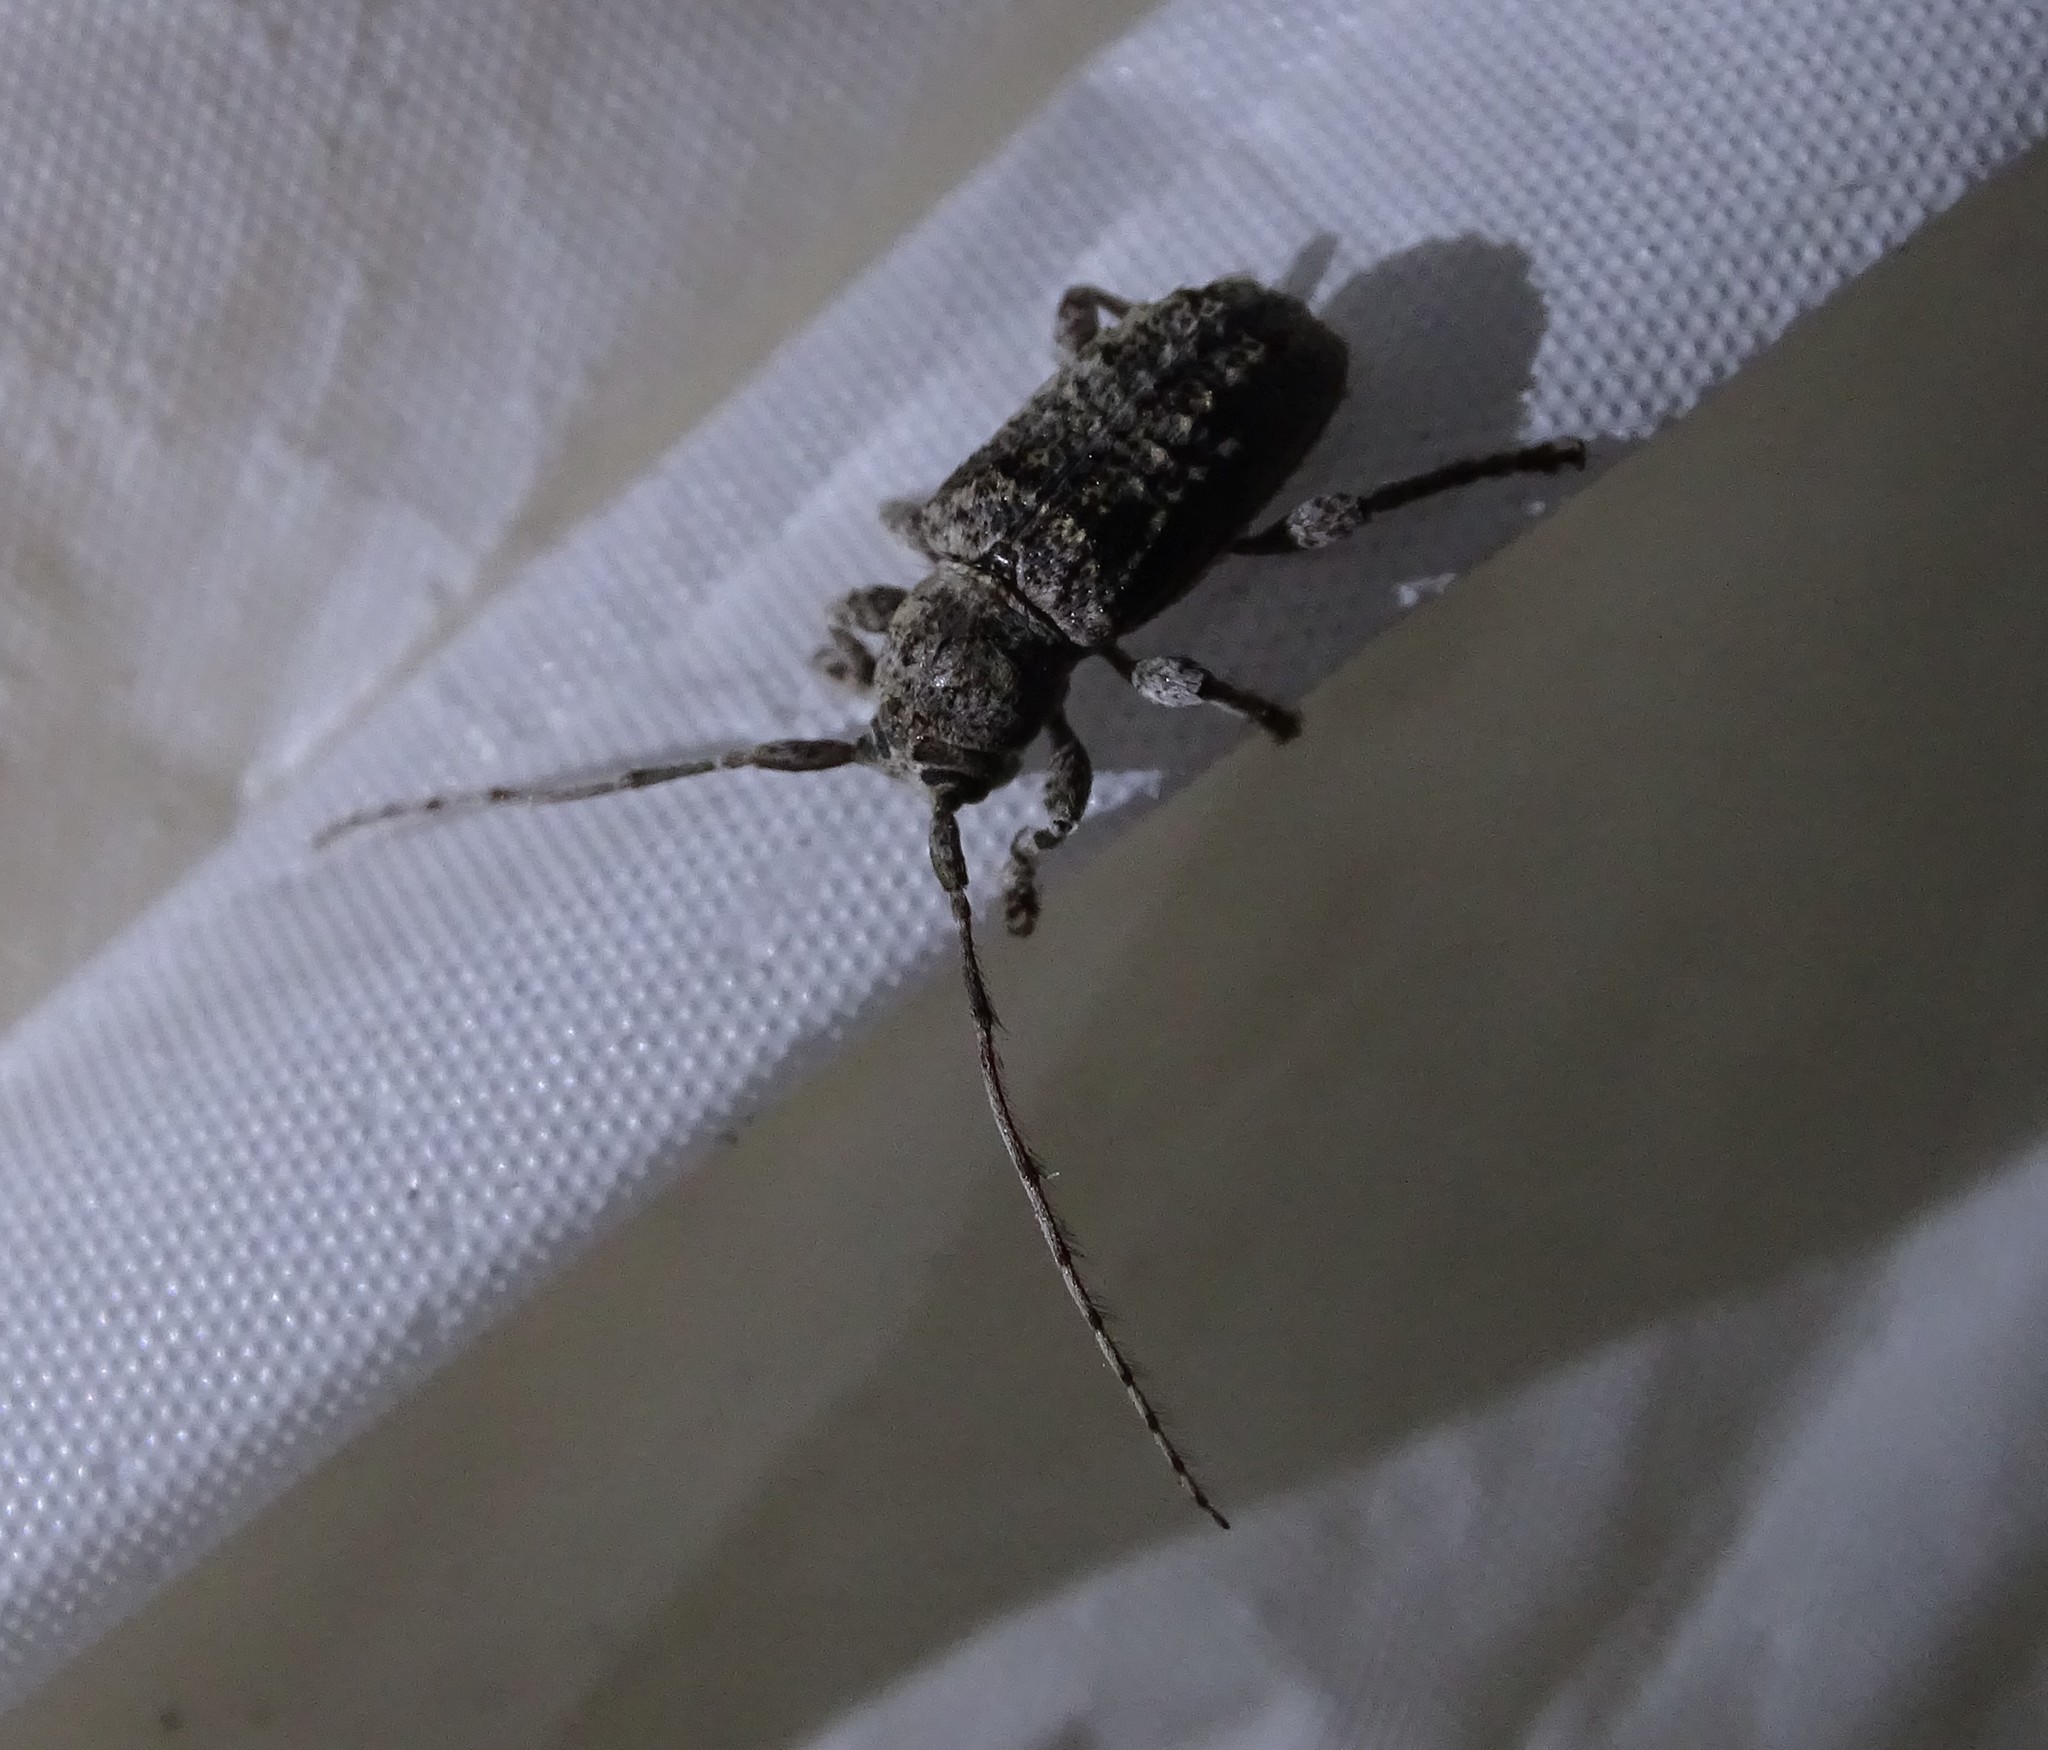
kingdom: Animalia
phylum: Arthropoda
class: Insecta
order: Coleoptera
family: Cerambycidae
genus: Ecyrus
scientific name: Ecyrus dasycerus
